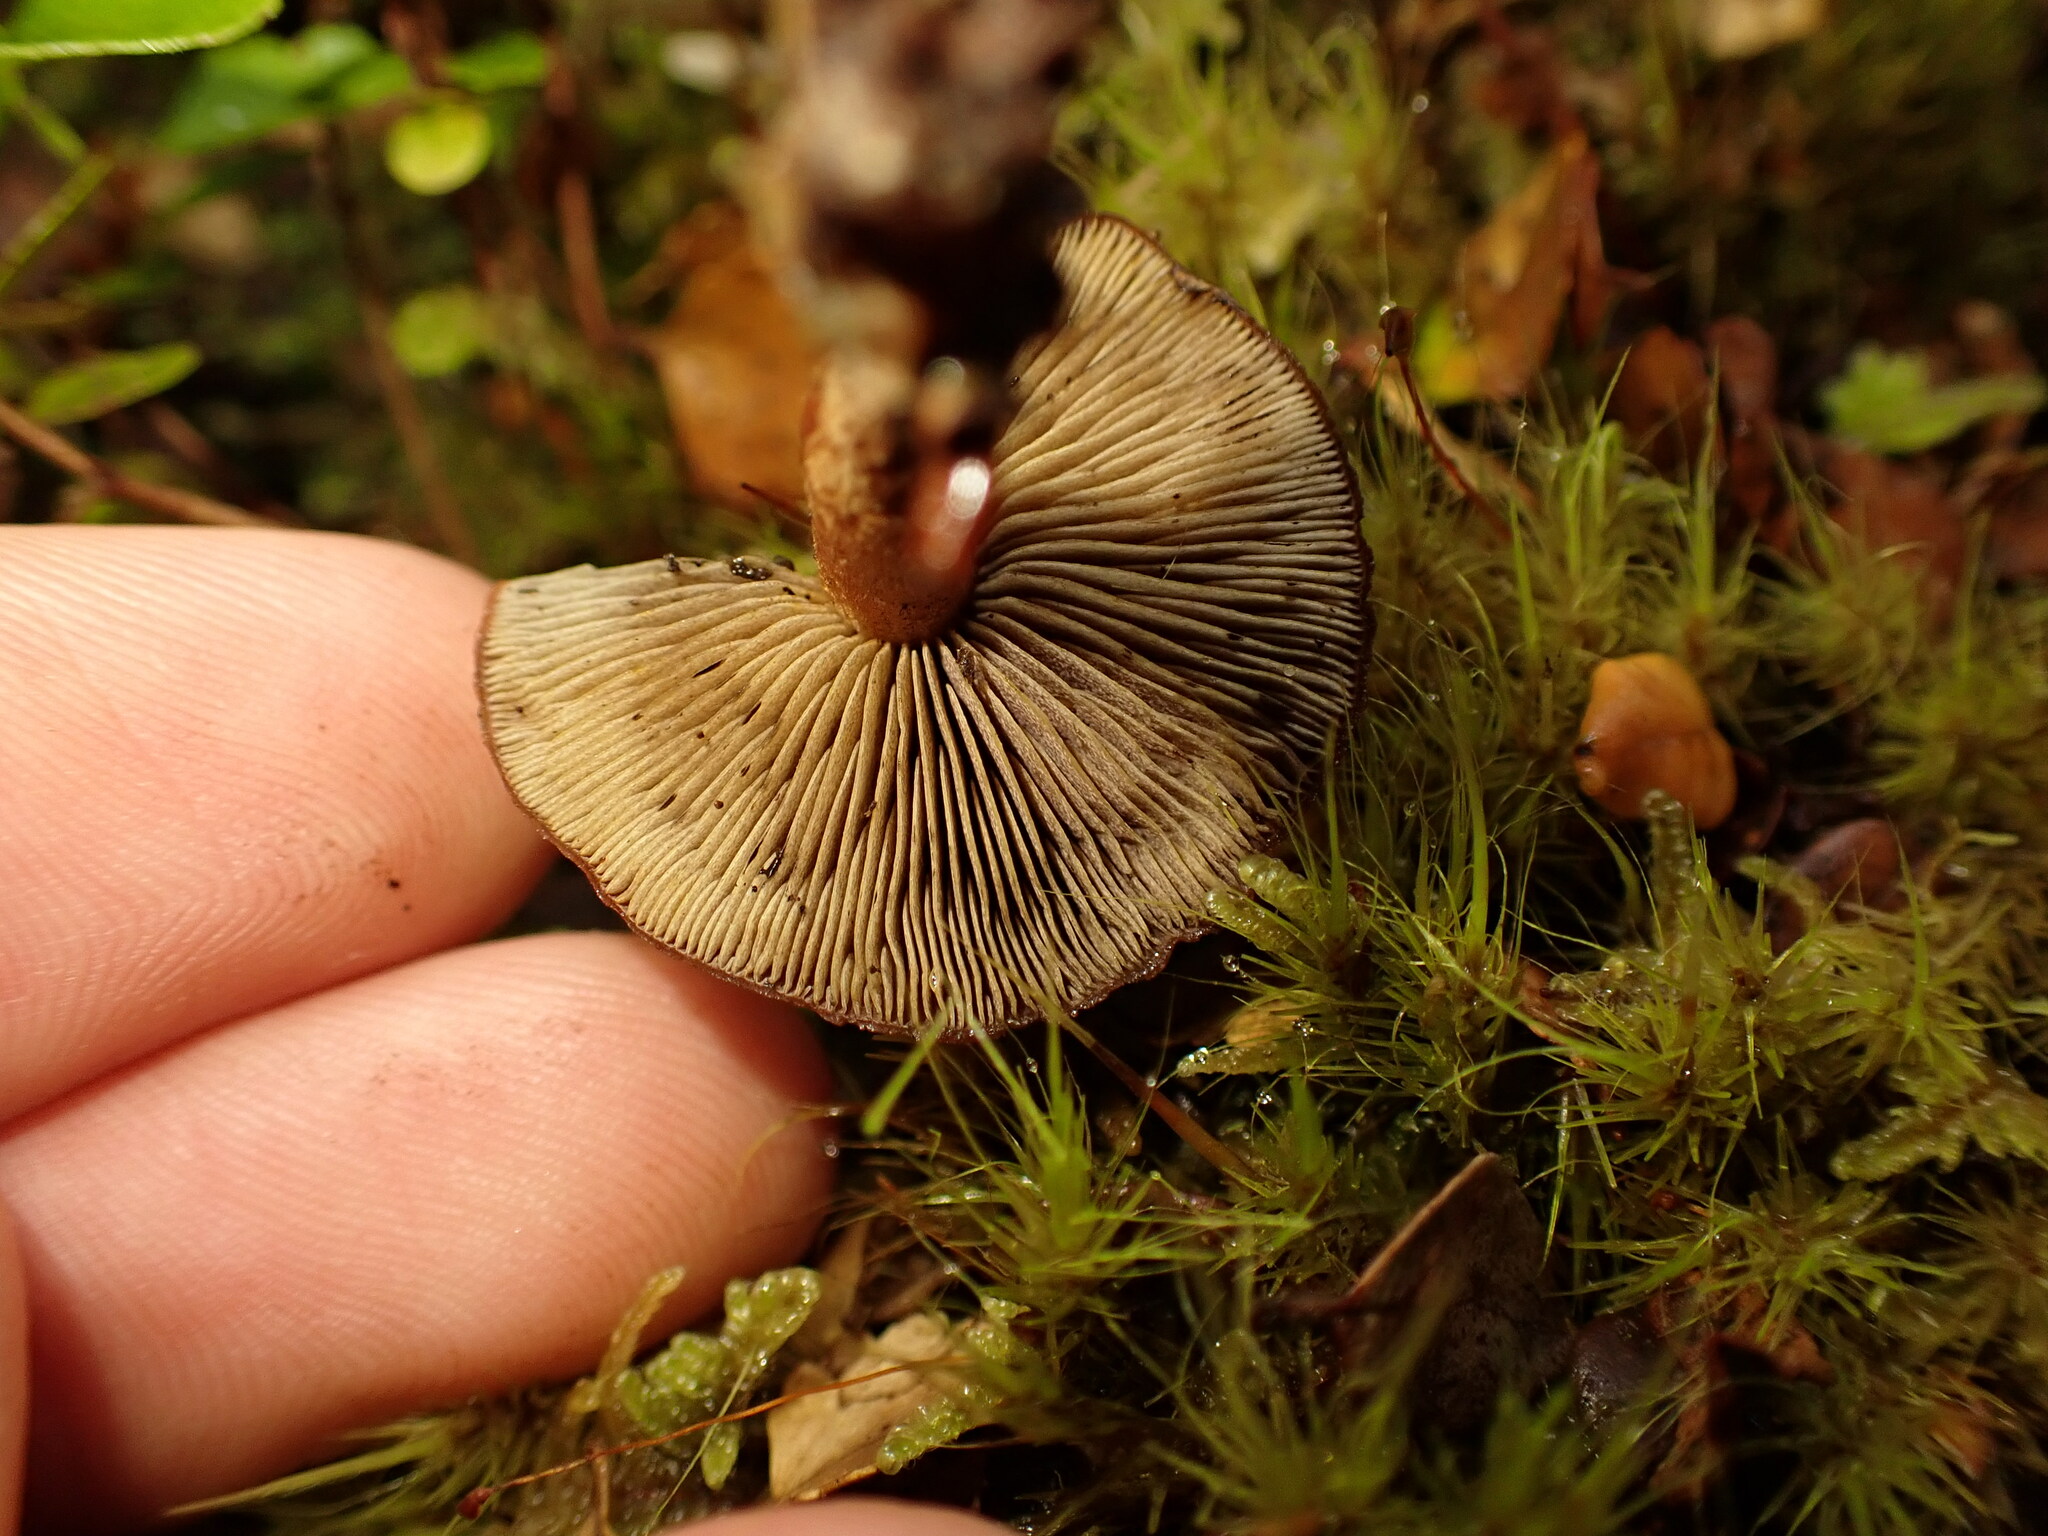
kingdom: Fungi
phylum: Basidiomycota
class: Agaricomycetes
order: Agaricales
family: Strophariaceae
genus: Hypholoma
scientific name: Hypholoma brunneum
